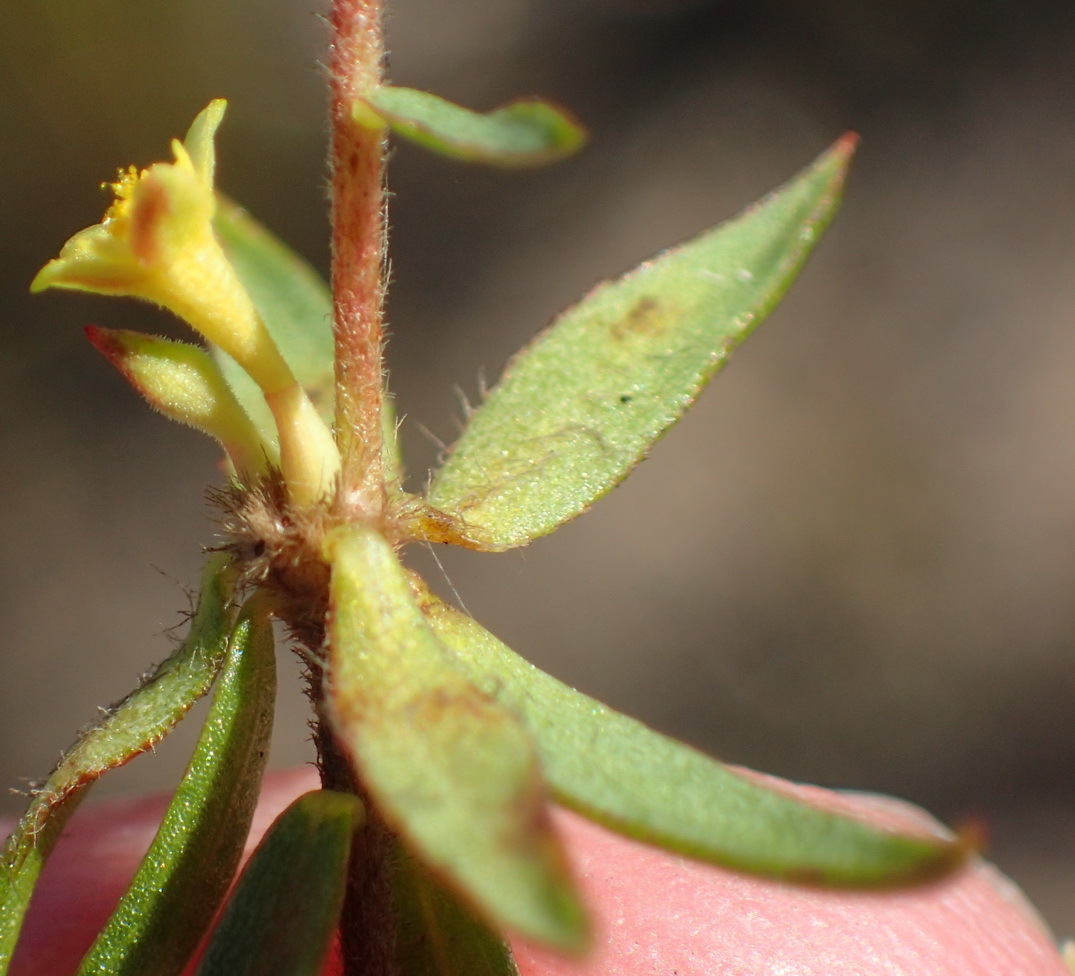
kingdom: Plantae
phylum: Tracheophyta
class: Magnoliopsida
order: Malvales
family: Thymelaeaceae
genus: Gnidia
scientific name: Gnidia juniperifolia
